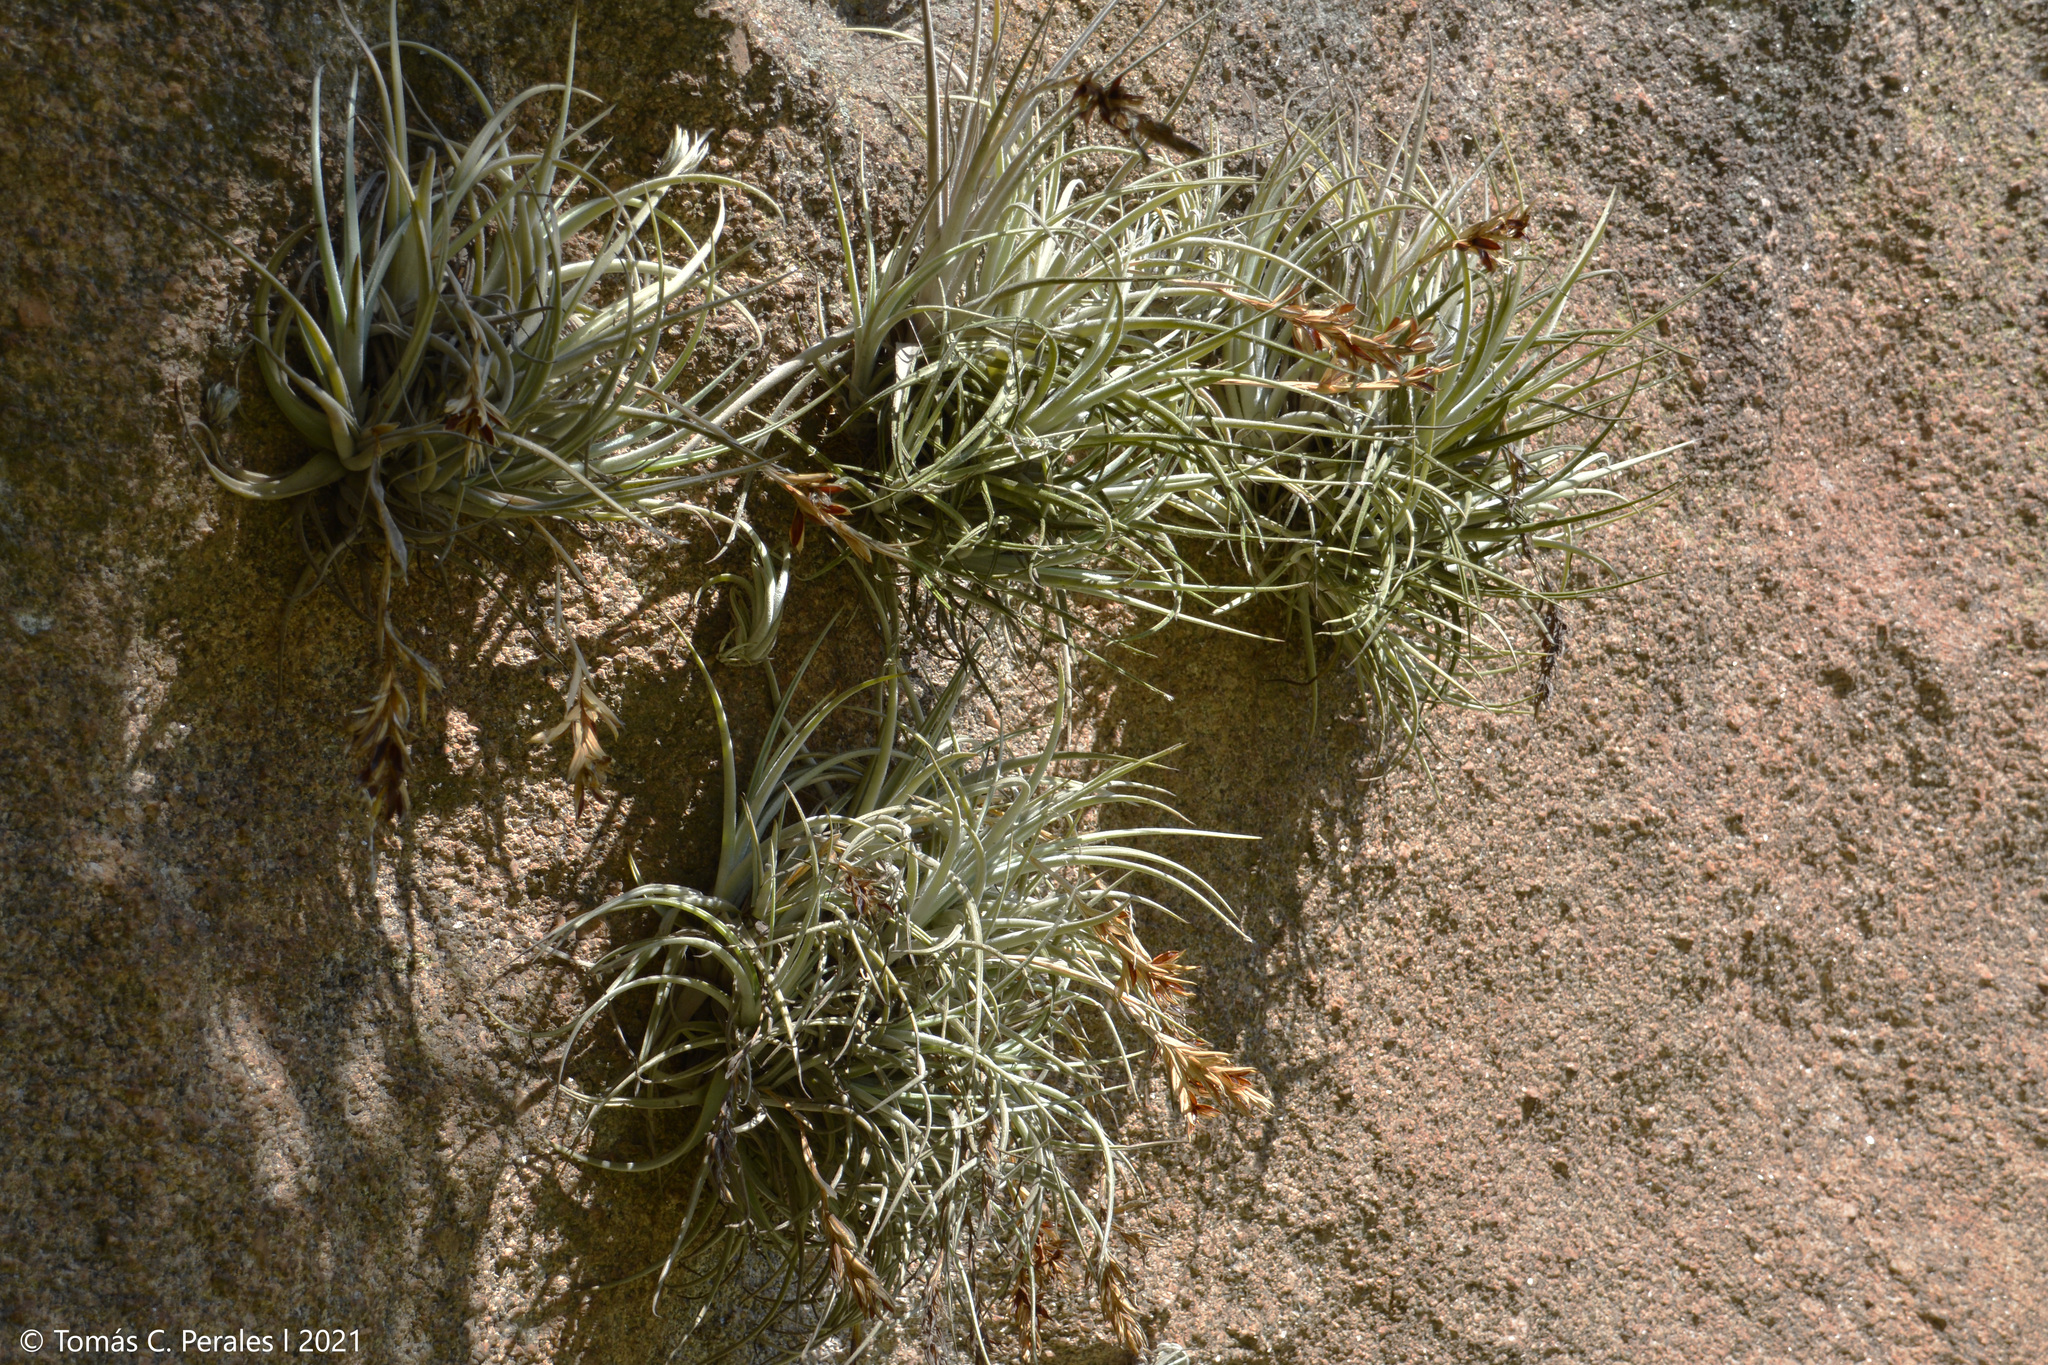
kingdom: Plantae
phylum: Tracheophyta
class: Liliopsida
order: Poales
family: Bromeliaceae
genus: Tillandsia
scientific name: Tillandsia lorentziana
